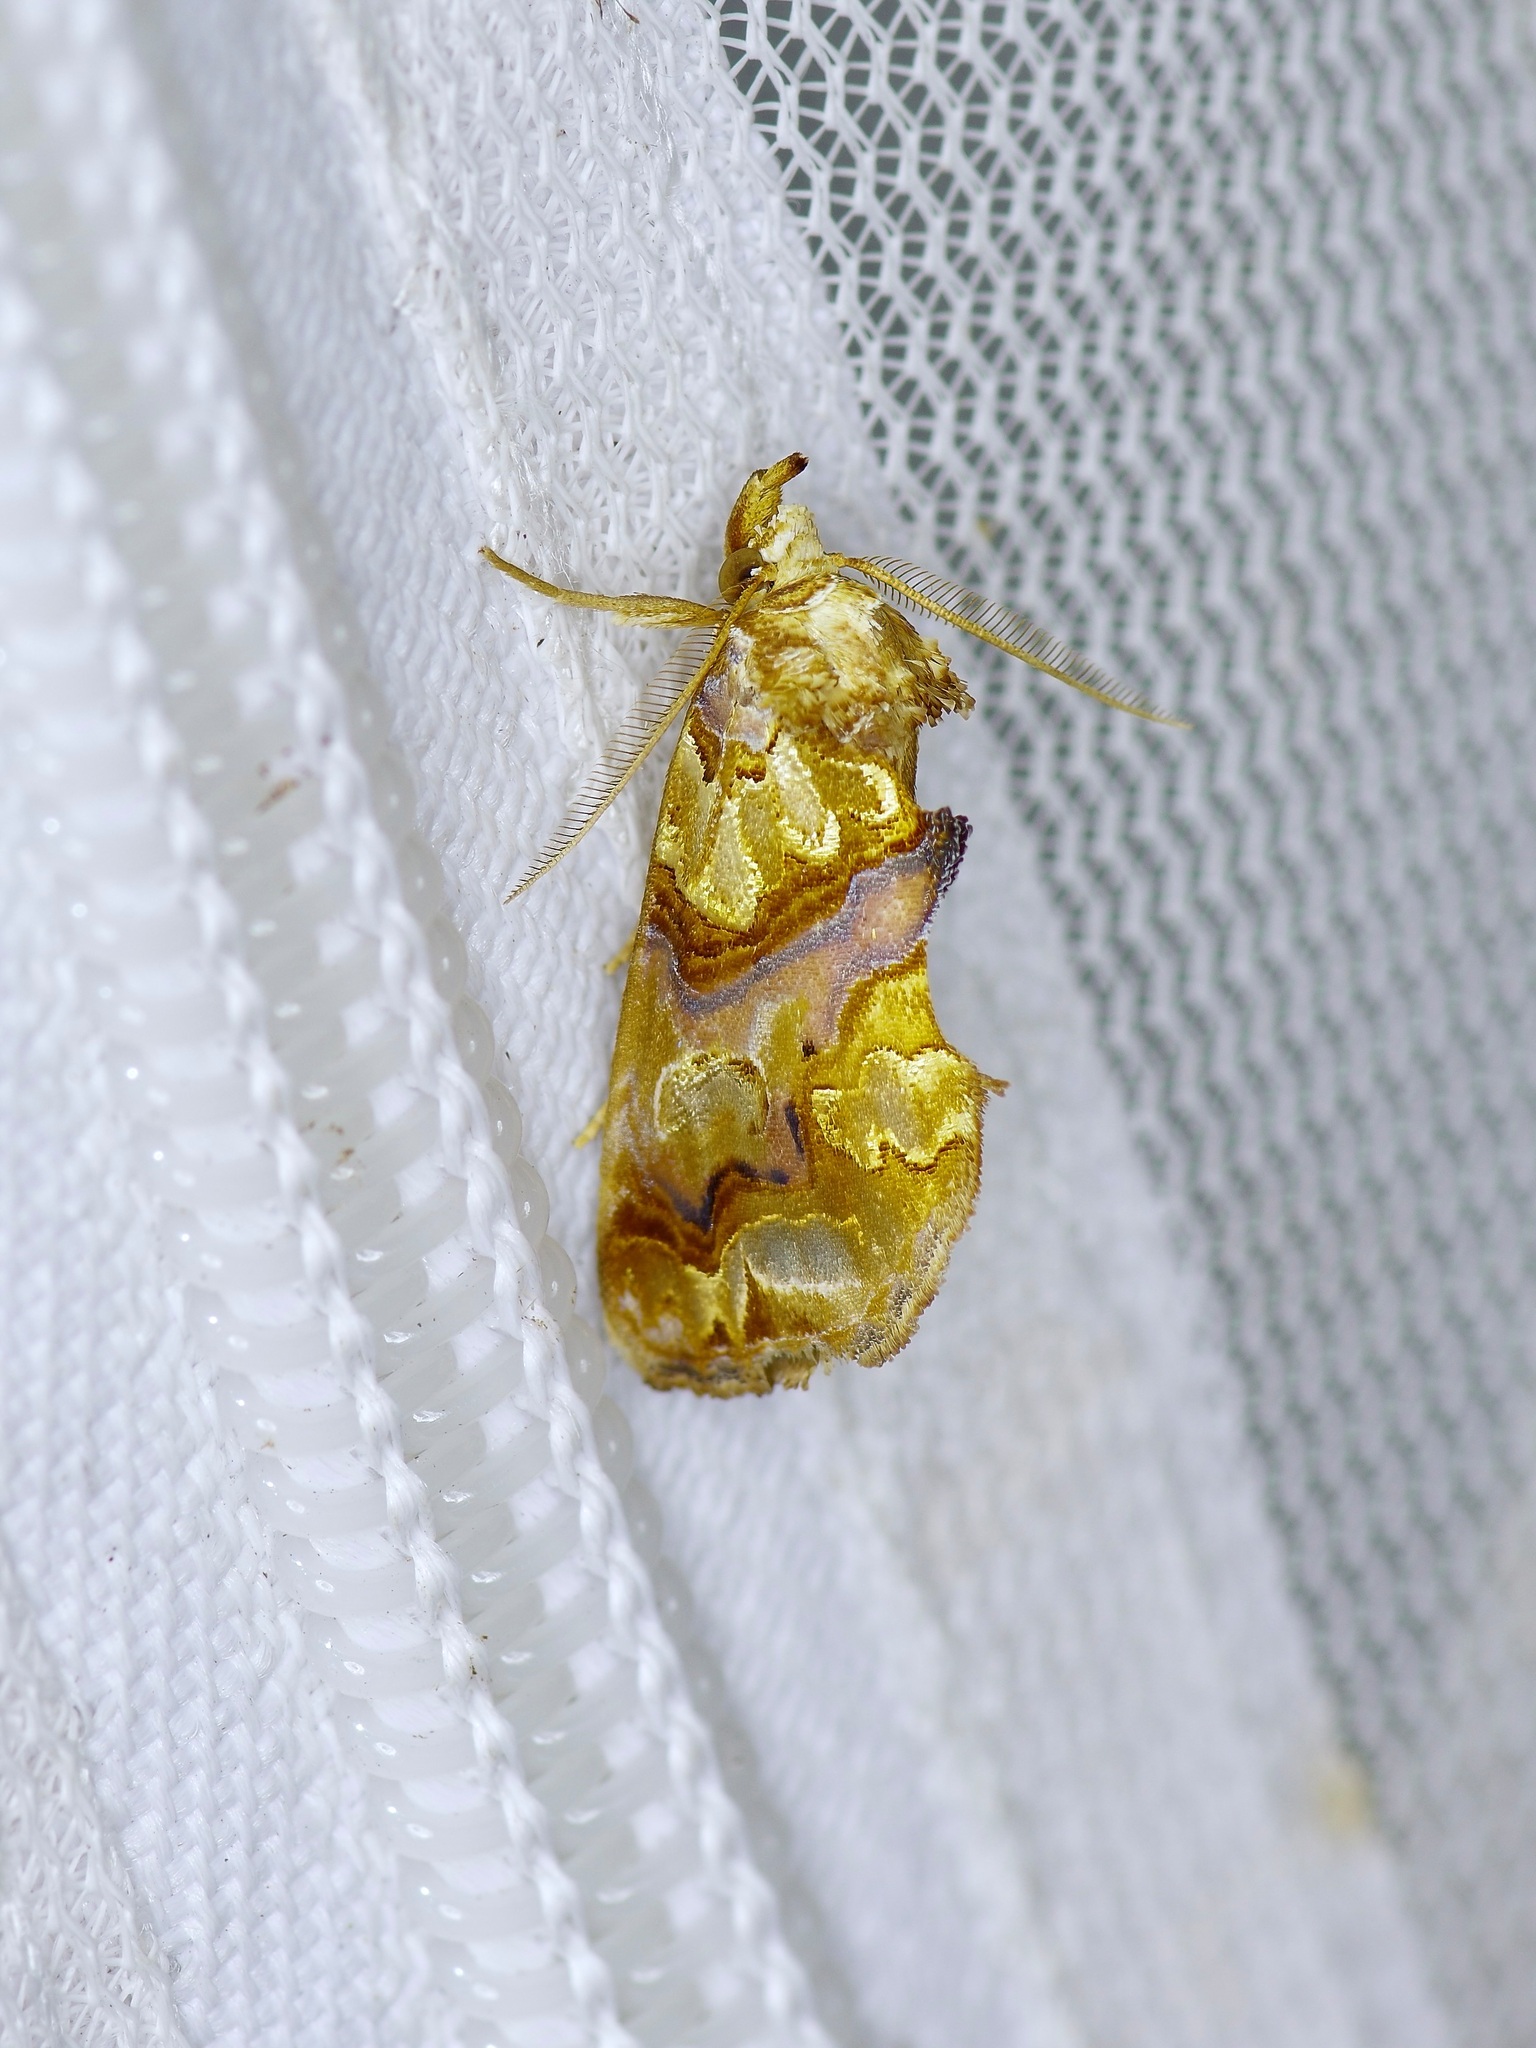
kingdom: Animalia
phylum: Arthropoda
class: Insecta
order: Lepidoptera
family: Erebidae
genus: Plusiodonta
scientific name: Plusiodonta compressipalpis
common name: Moonseed moth
